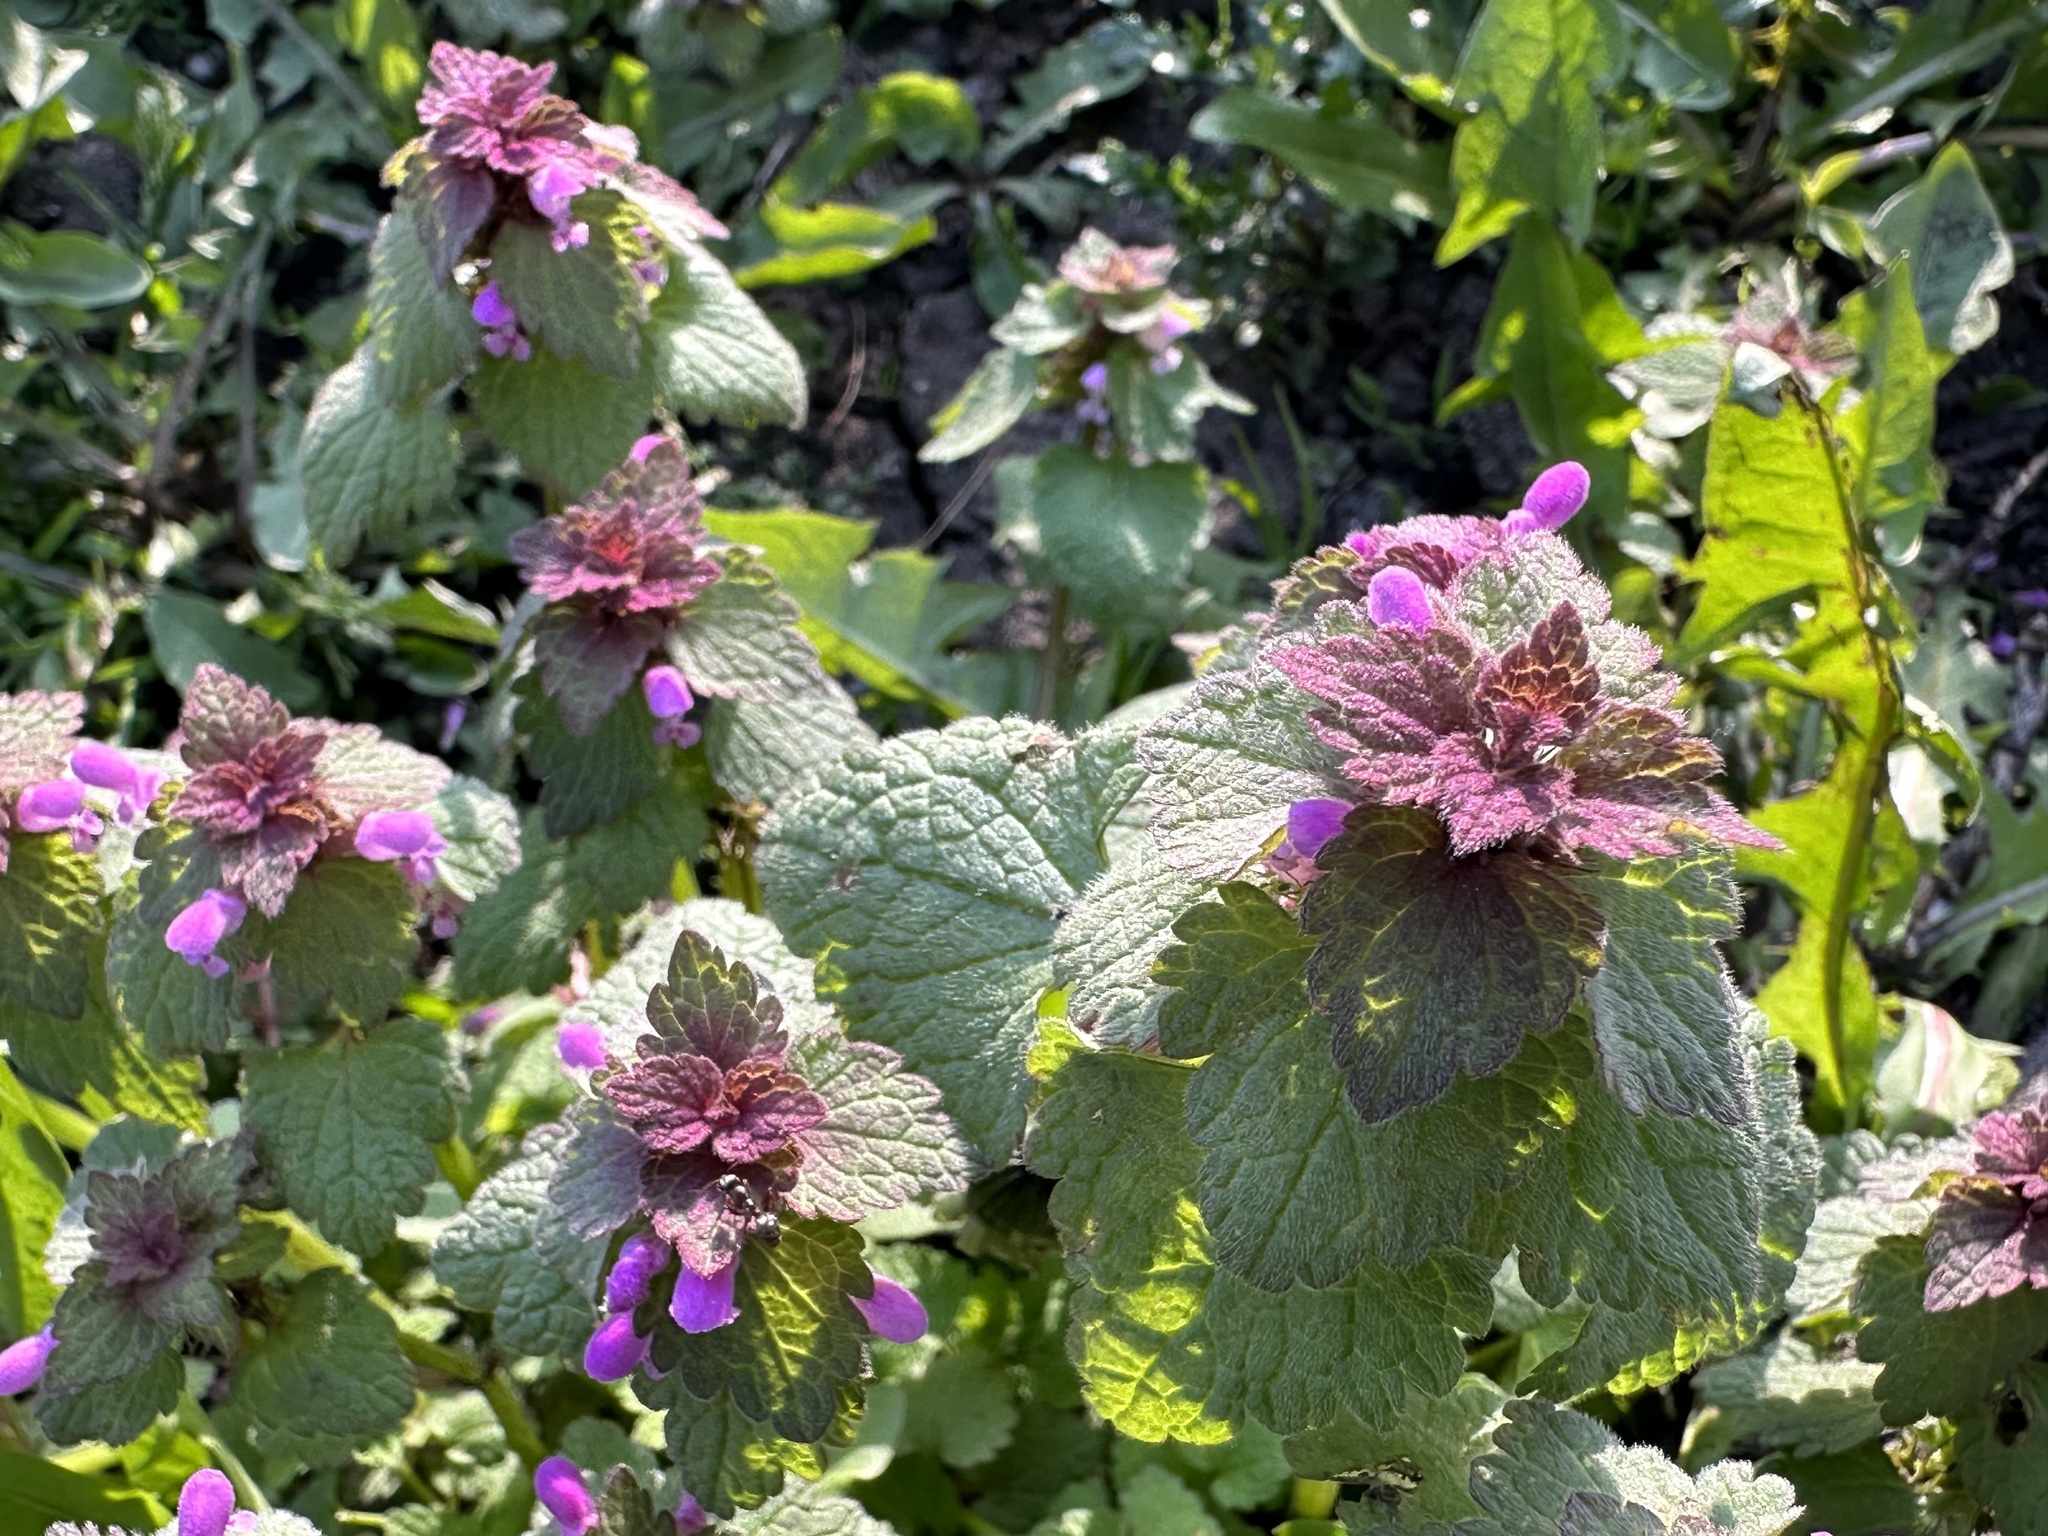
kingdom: Plantae
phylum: Tracheophyta
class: Magnoliopsida
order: Lamiales
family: Lamiaceae
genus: Lamium
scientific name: Lamium purpureum
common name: Red dead-nettle
